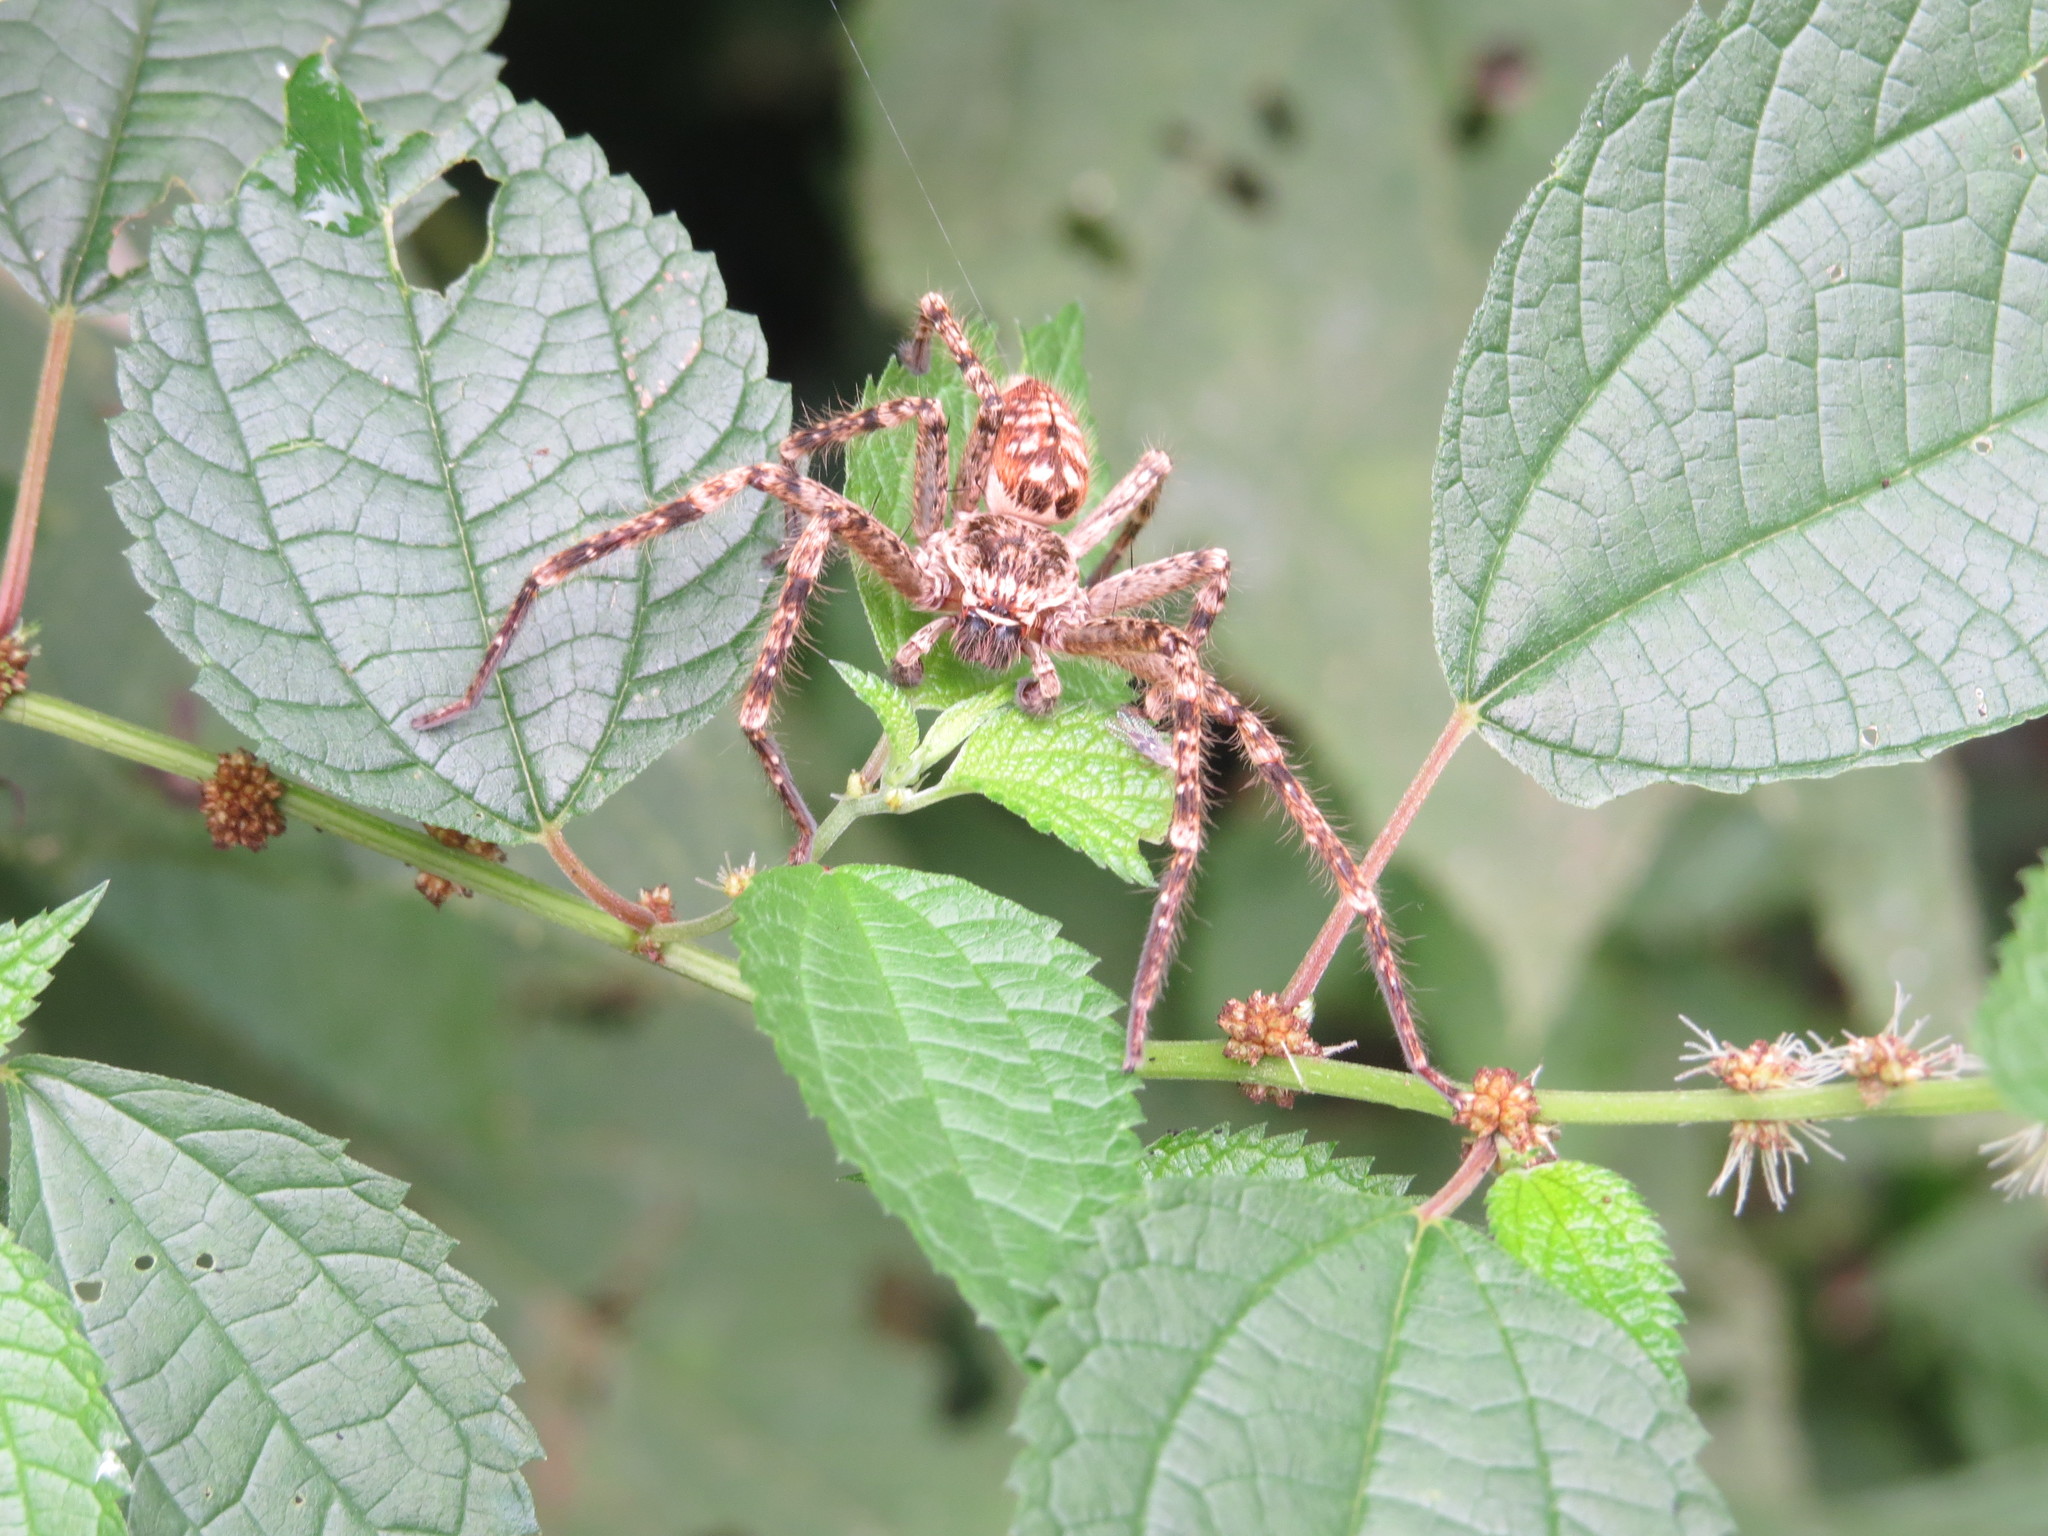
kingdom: Animalia
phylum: Arthropoda
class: Arachnida
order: Araneae
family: Sparassidae
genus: Polybetes
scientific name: Polybetes rapidus
